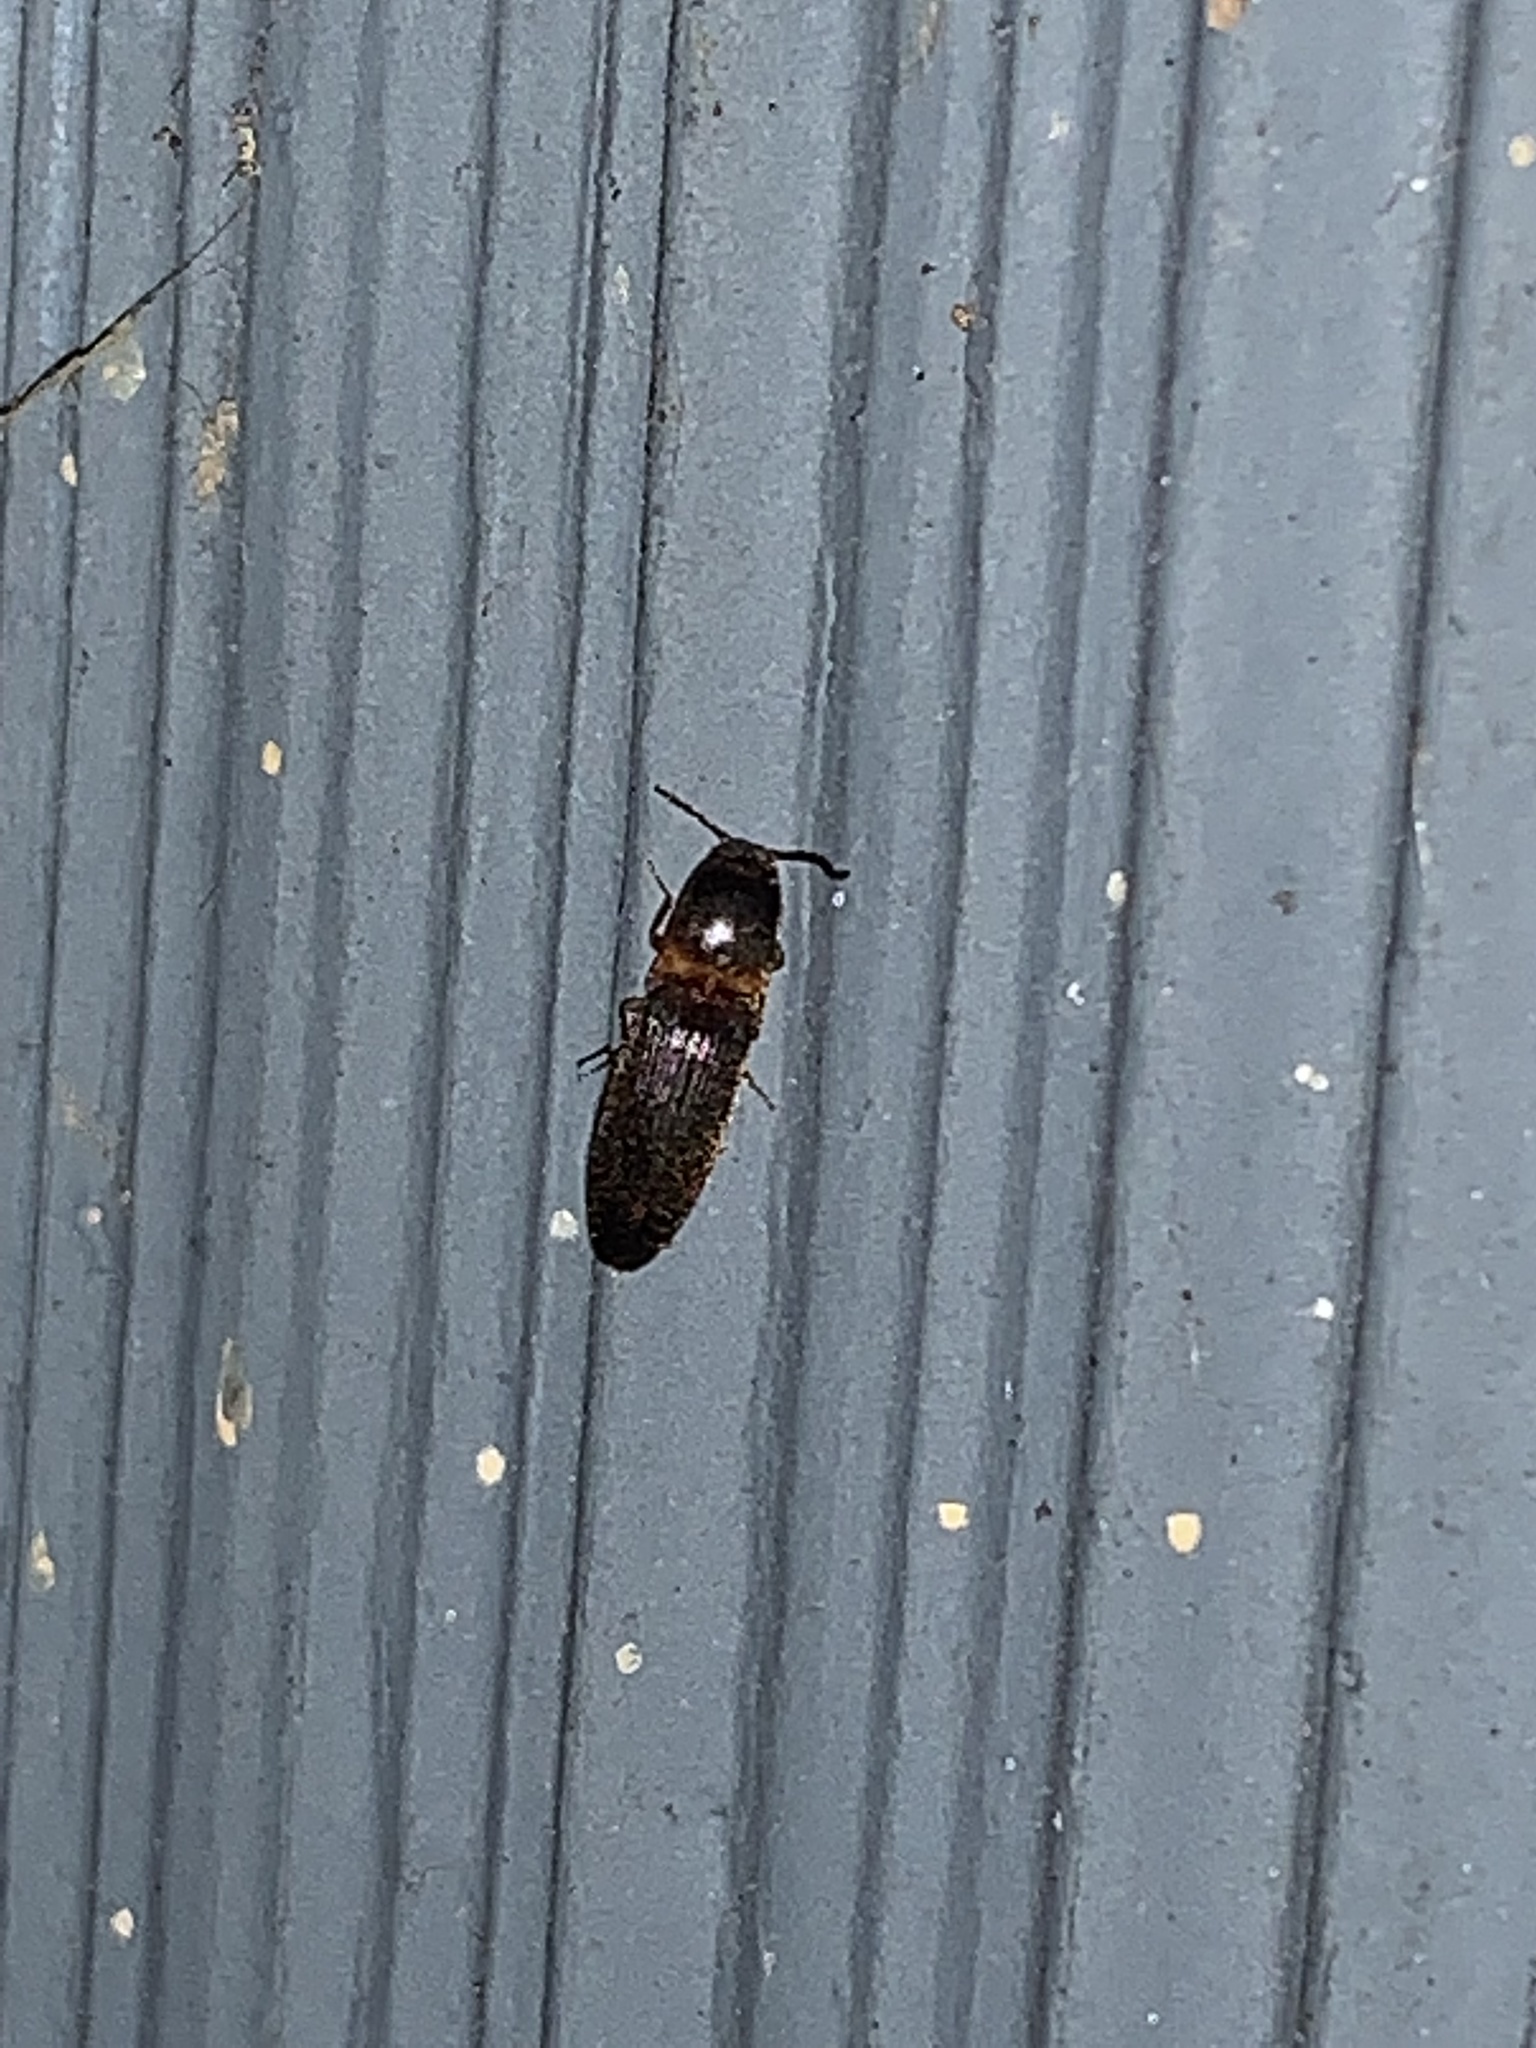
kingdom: Animalia
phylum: Arthropoda
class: Insecta
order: Coleoptera
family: Elateridae
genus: Megapenthes
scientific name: Megapenthes
